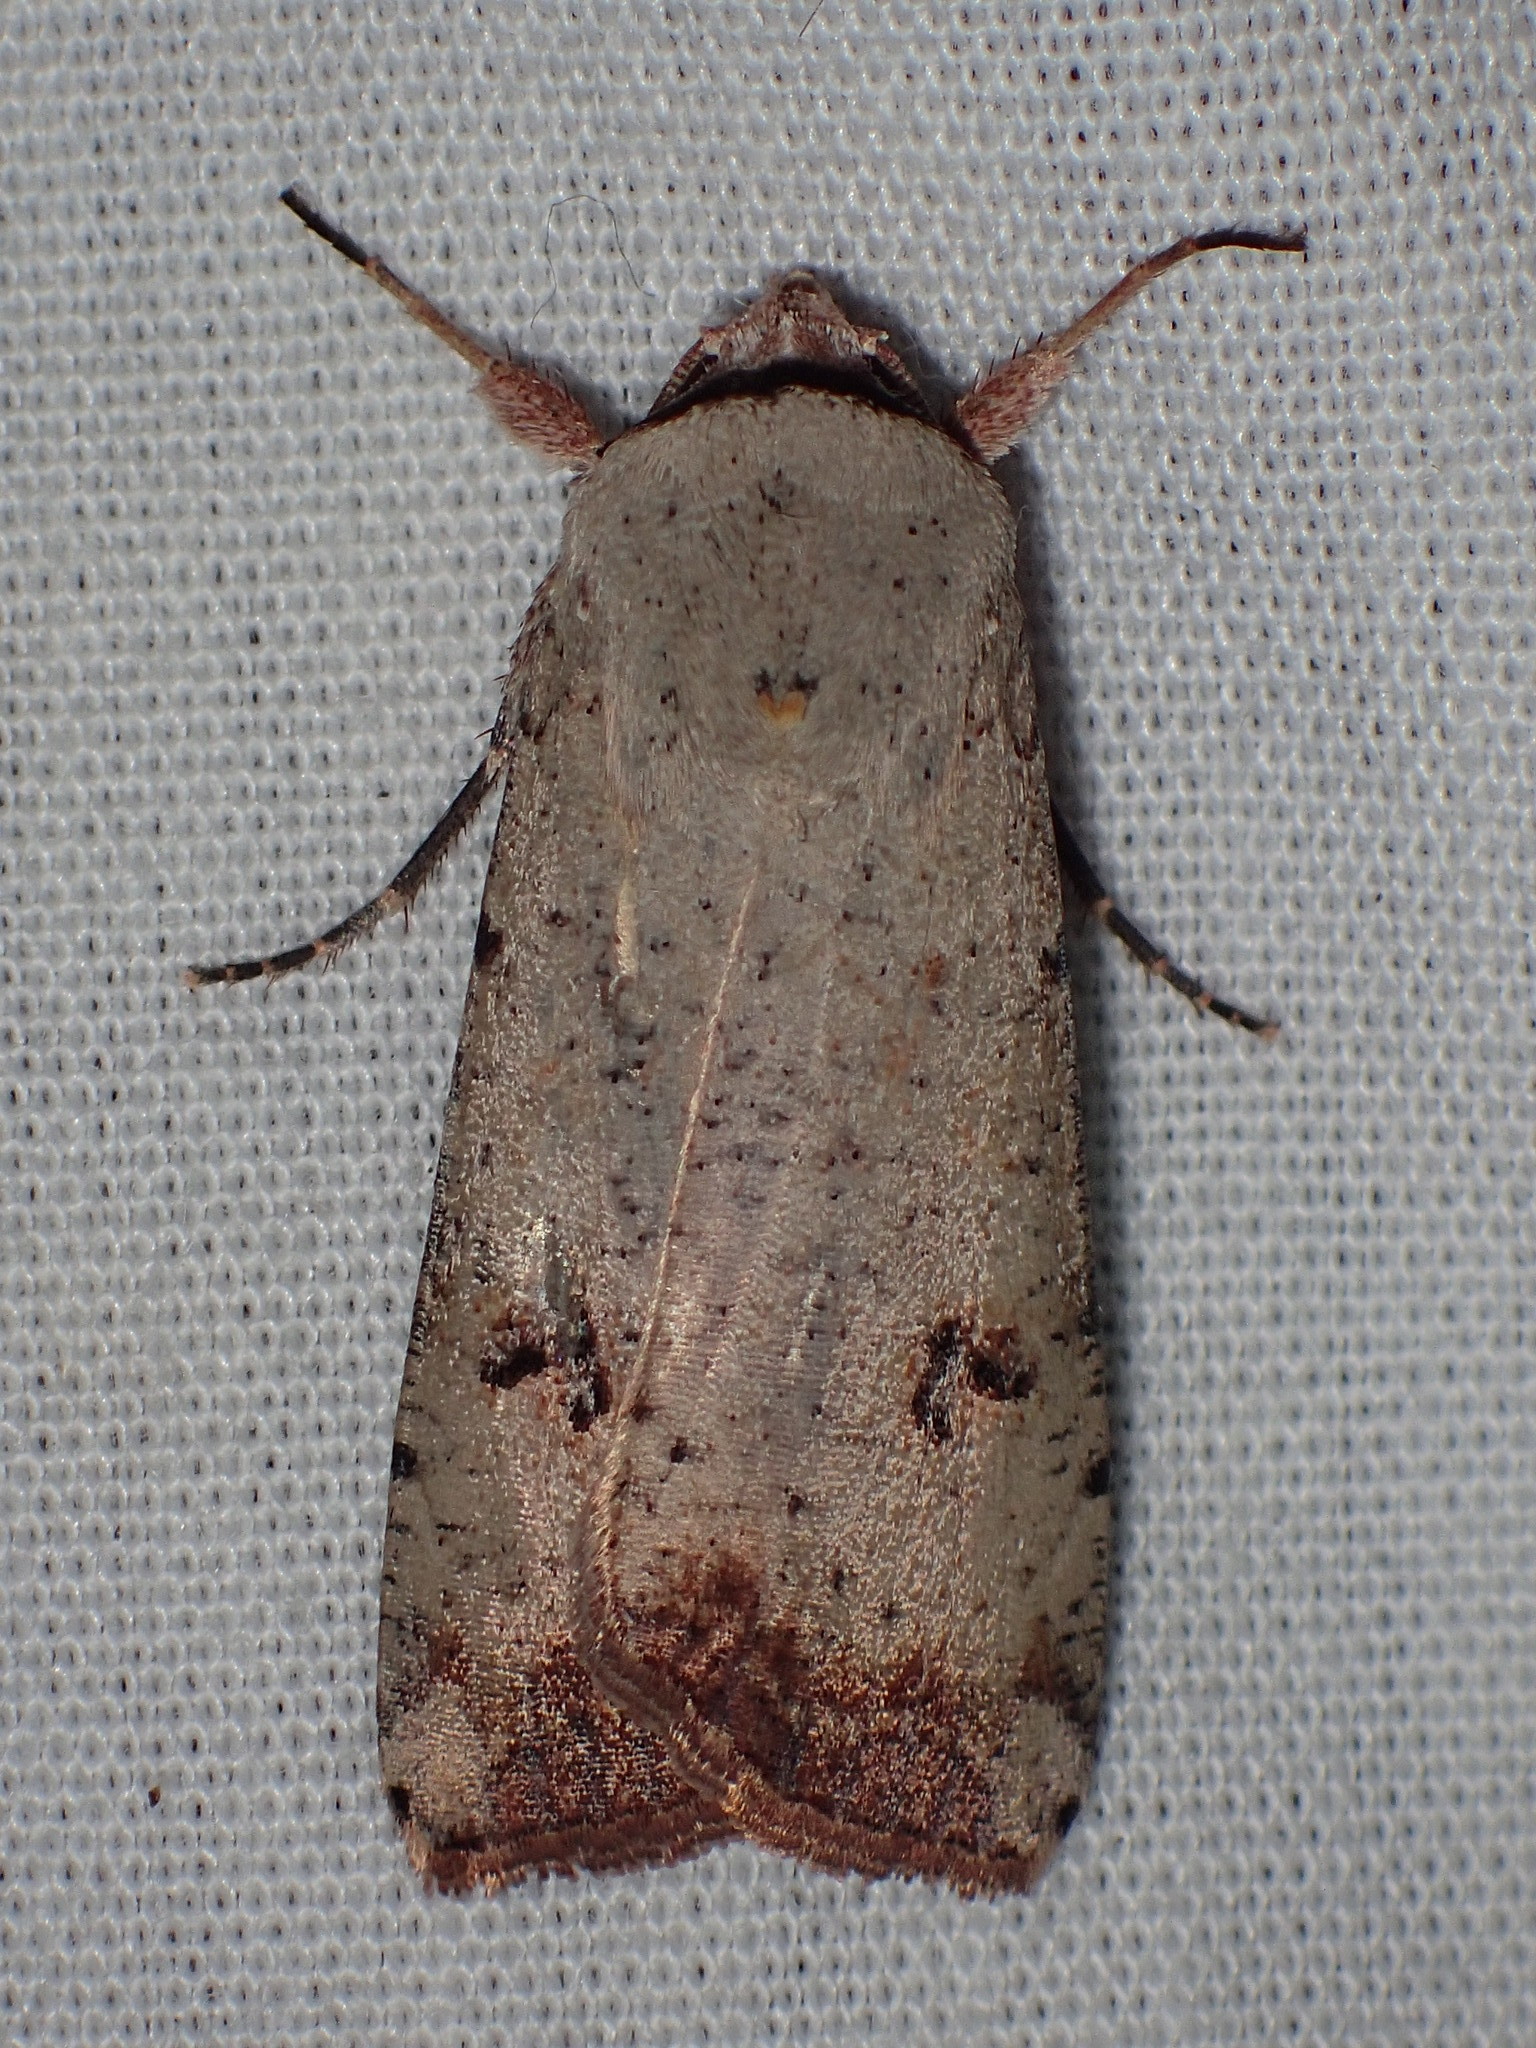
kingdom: Animalia
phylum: Arthropoda
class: Insecta
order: Lepidoptera
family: Noctuidae
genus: Anicla
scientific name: Anicla infecta
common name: Green cutworm
